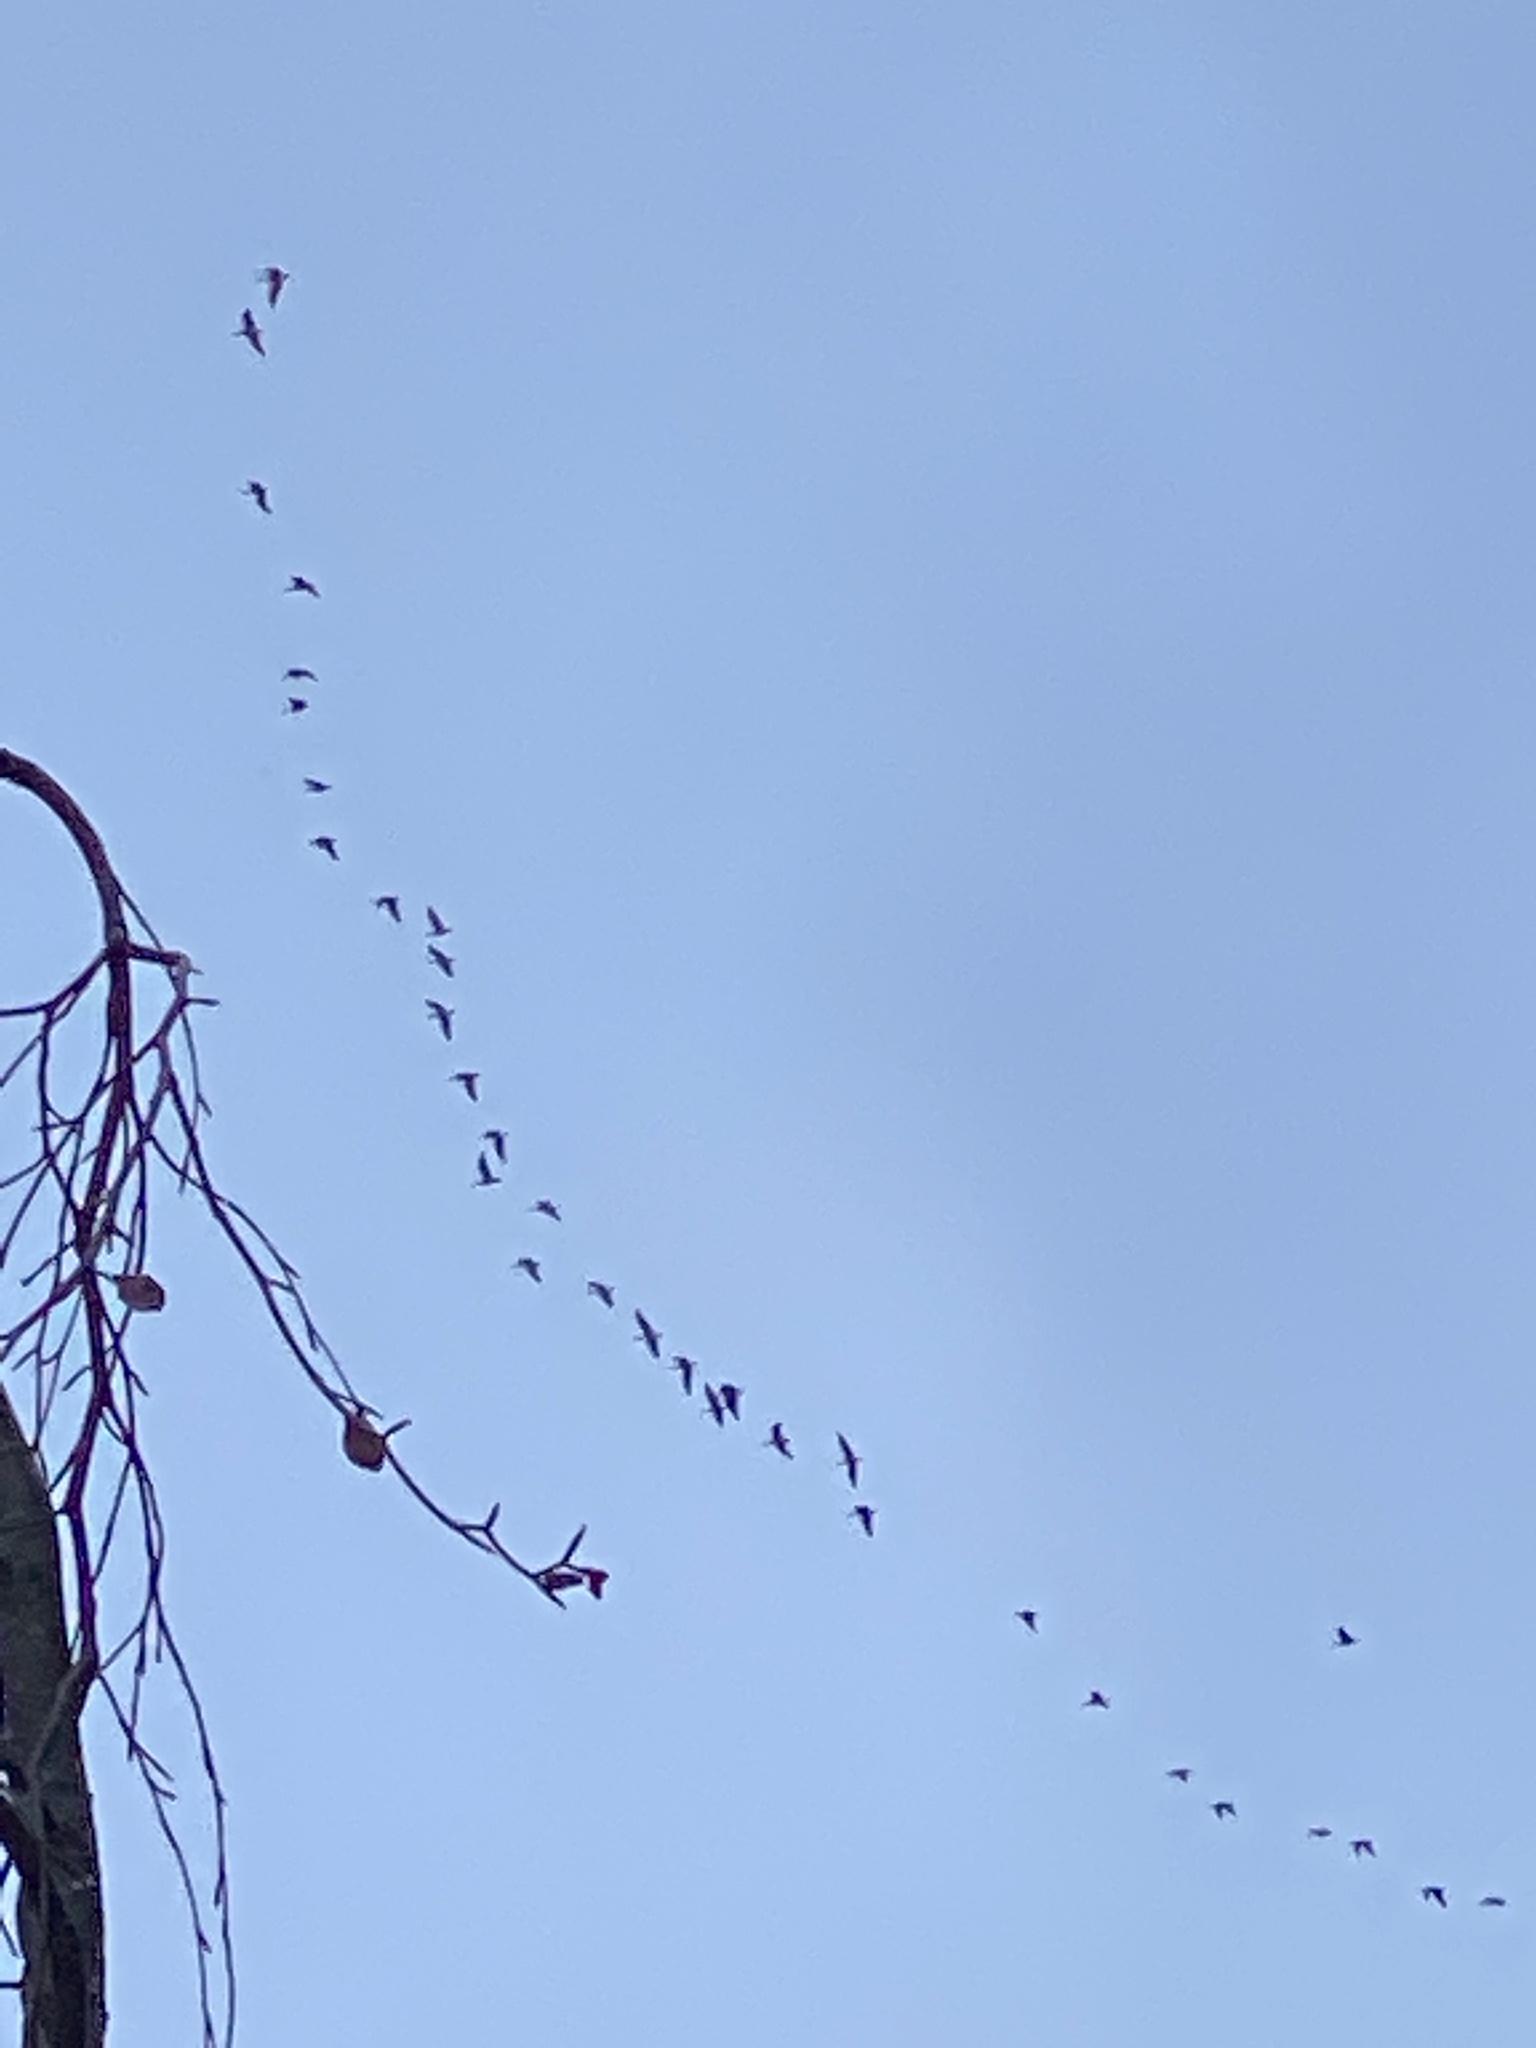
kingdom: Animalia
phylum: Chordata
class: Aves
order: Anseriformes
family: Anatidae
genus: Branta
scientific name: Branta canadensis
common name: Canada goose
